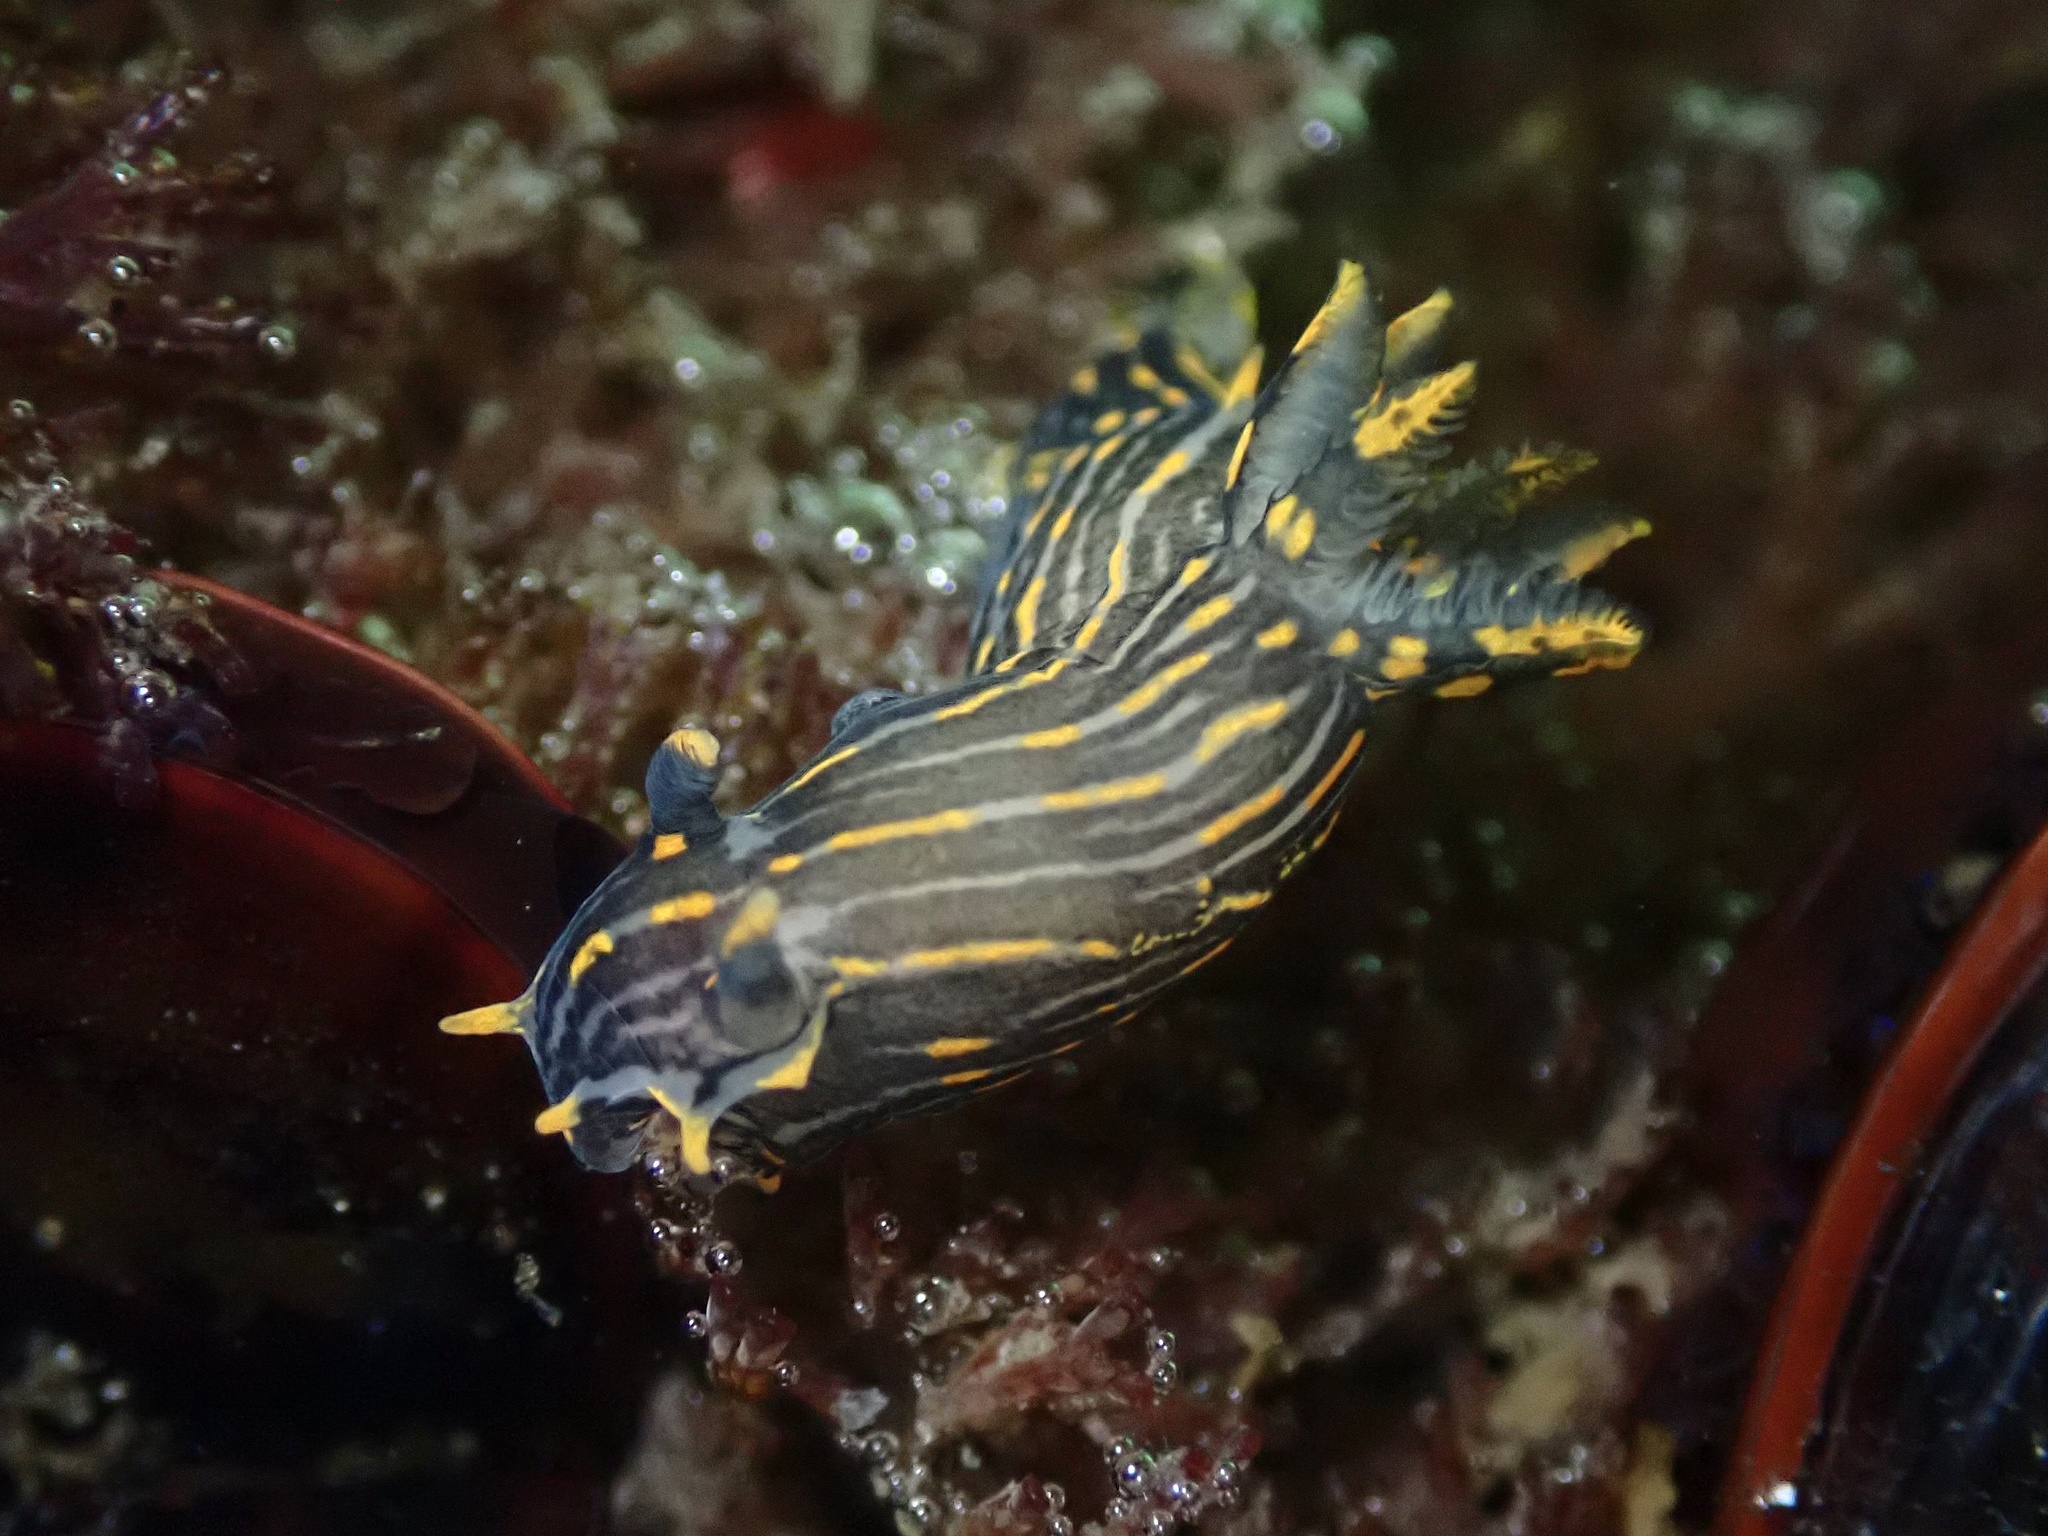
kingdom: Animalia
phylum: Mollusca
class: Gastropoda
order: Nudibranchia
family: Polyceridae
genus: Polycera
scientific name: Polycera atra
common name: Orange-spike polycera
